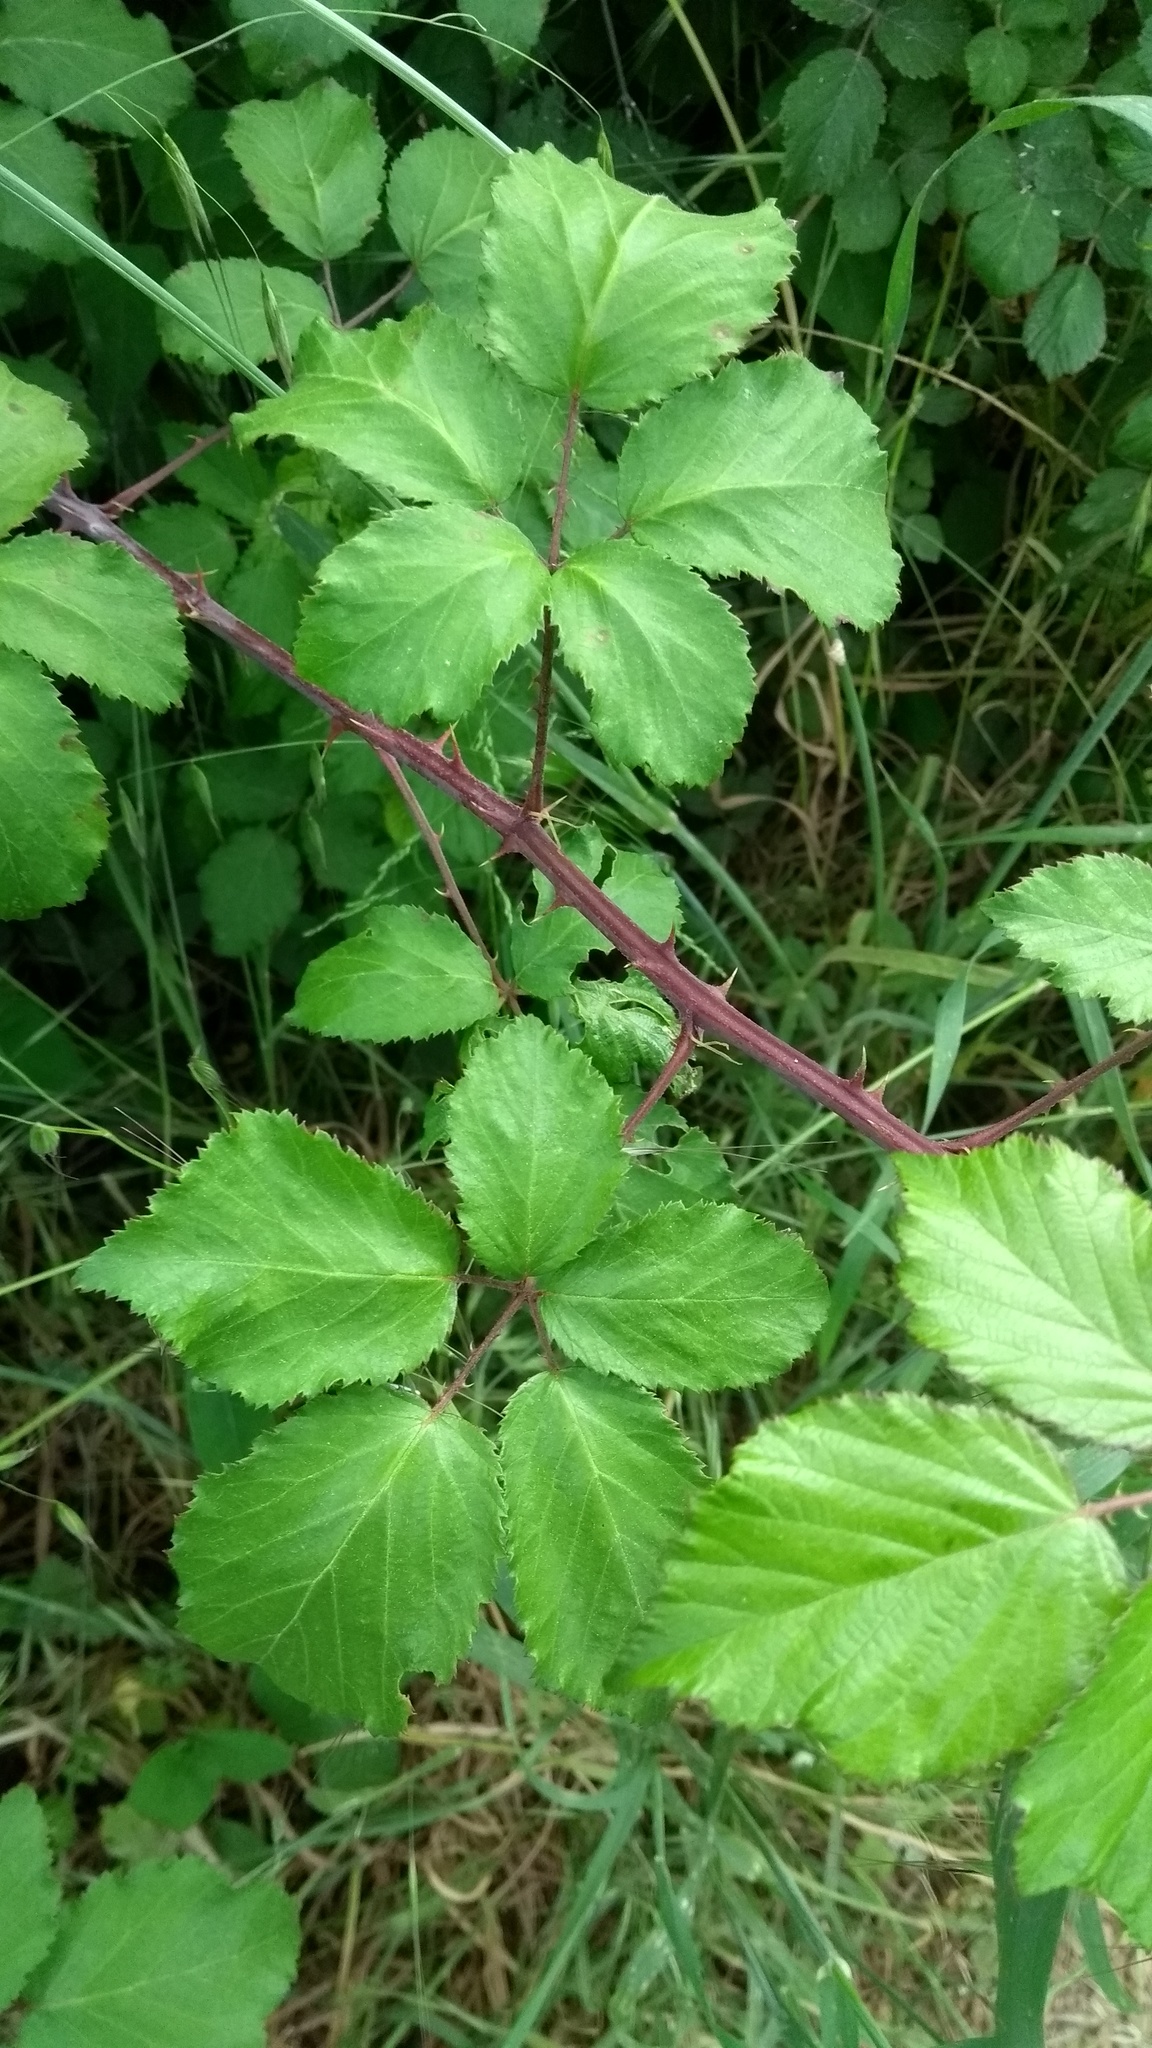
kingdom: Plantae
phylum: Tracheophyta
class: Magnoliopsida
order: Rosales
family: Rosaceae
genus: Rubus
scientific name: Rubus ulmifolius
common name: Elmleaf blackberry
